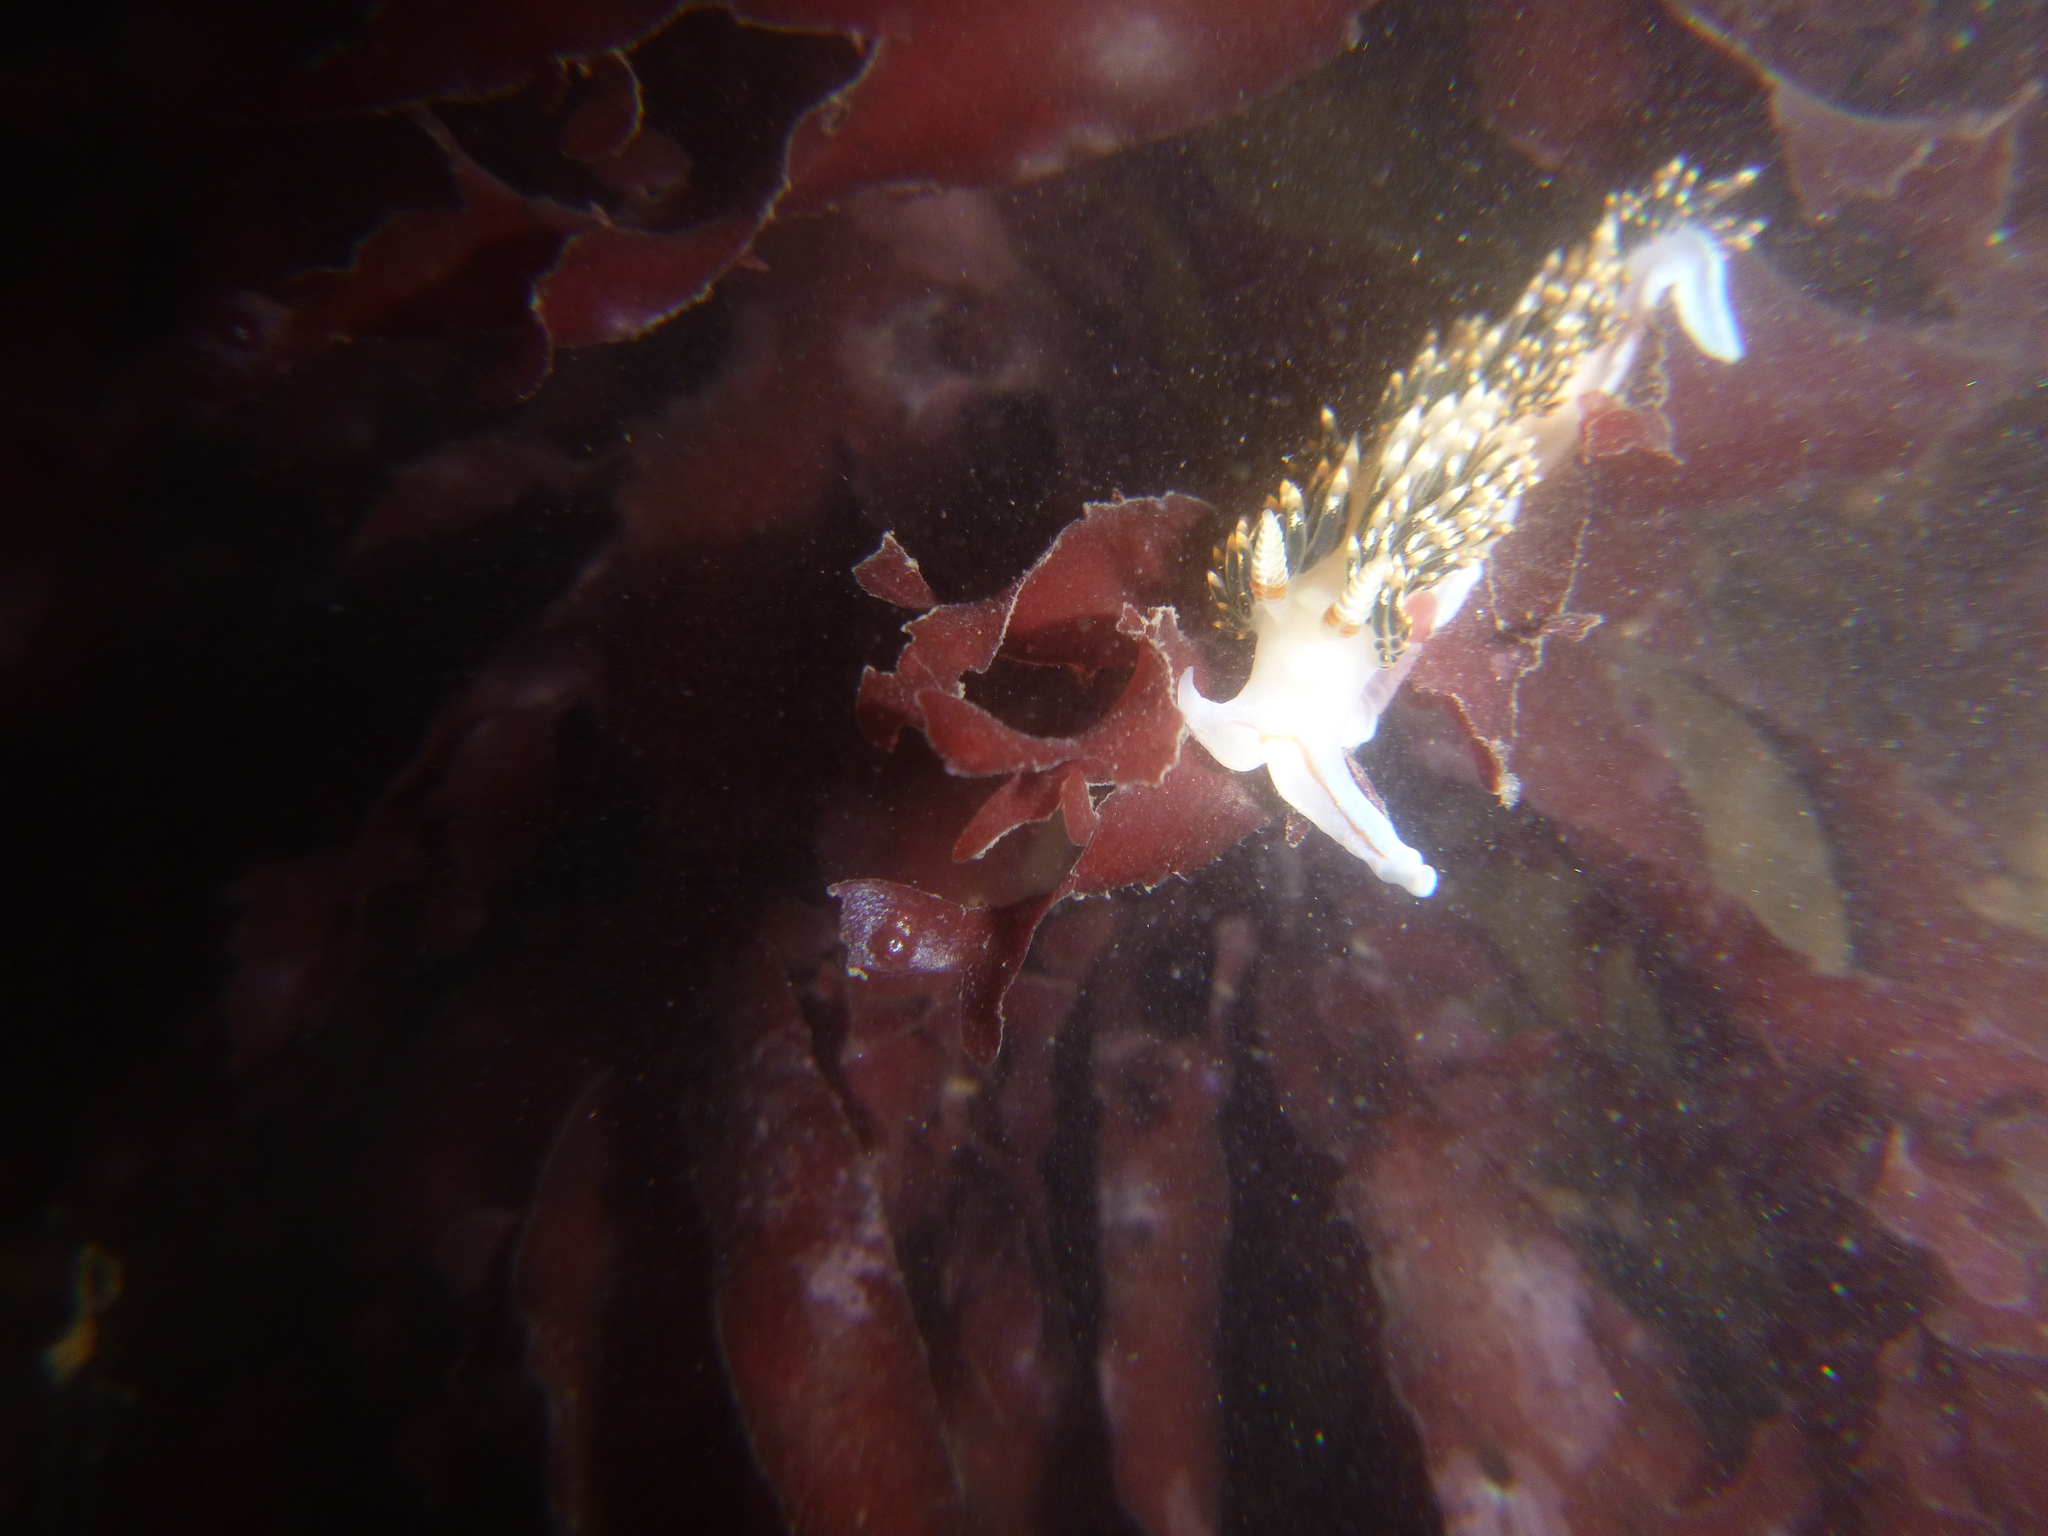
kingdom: Animalia
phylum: Mollusca
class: Gastropoda
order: Nudibranchia
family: Facelinidae
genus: Phidiana
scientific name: Phidiana hiltoni
